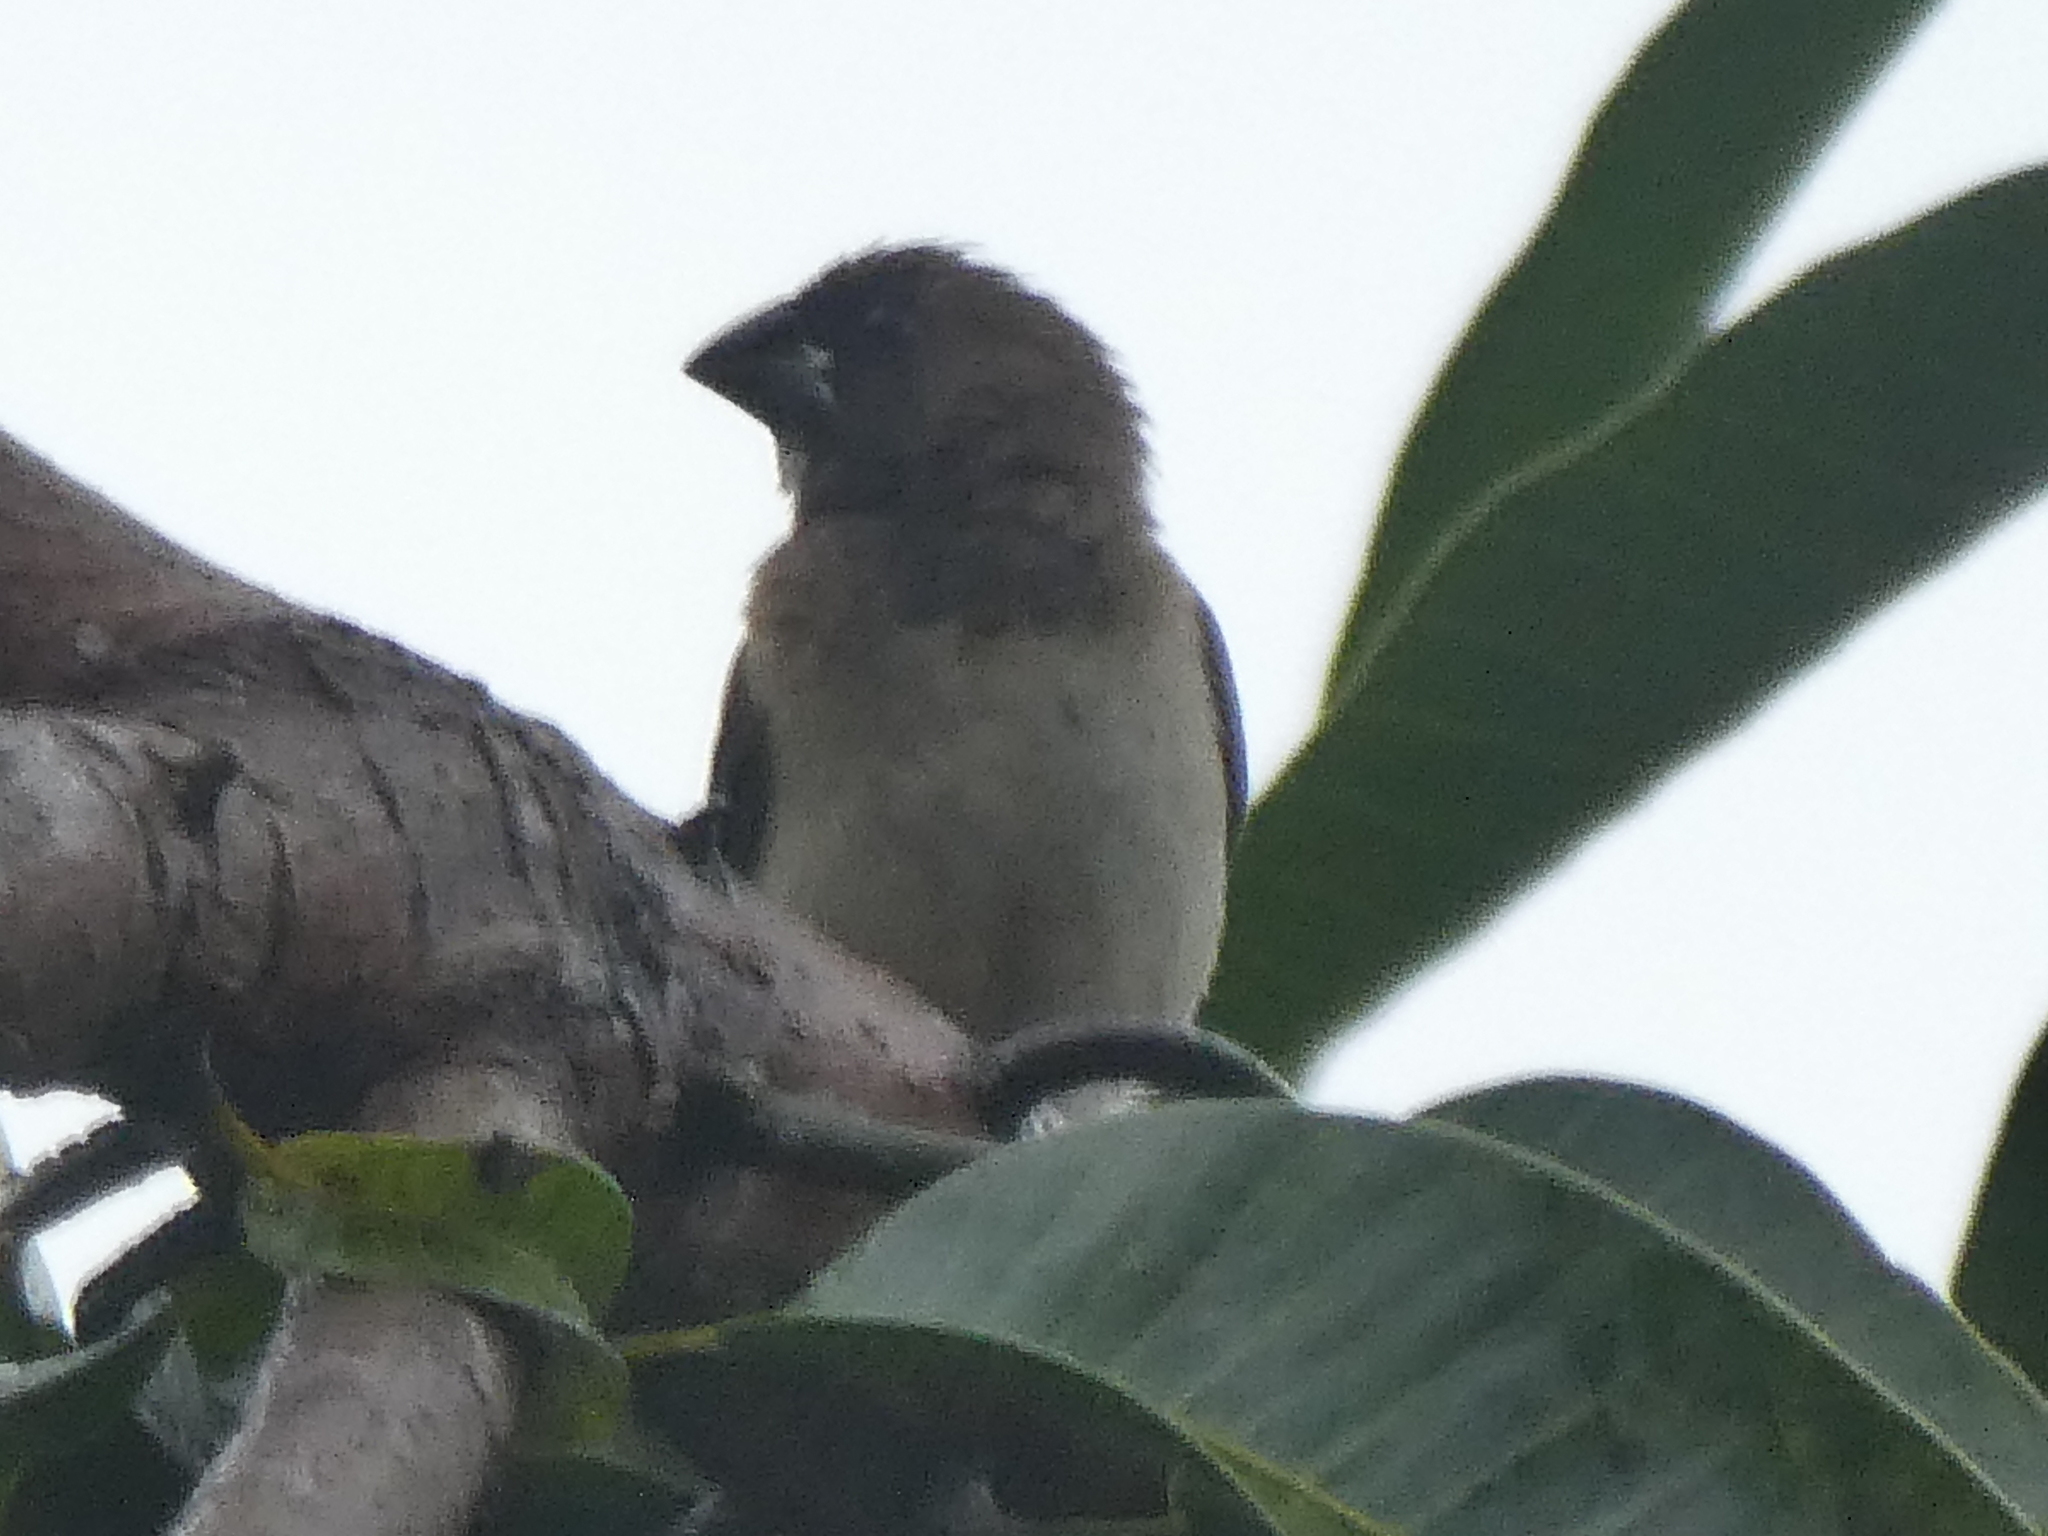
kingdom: Animalia
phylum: Chordata
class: Aves
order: Passeriformes
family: Estrildidae
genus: Lonchura
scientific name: Lonchura leucogastroides
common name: Javan munia
